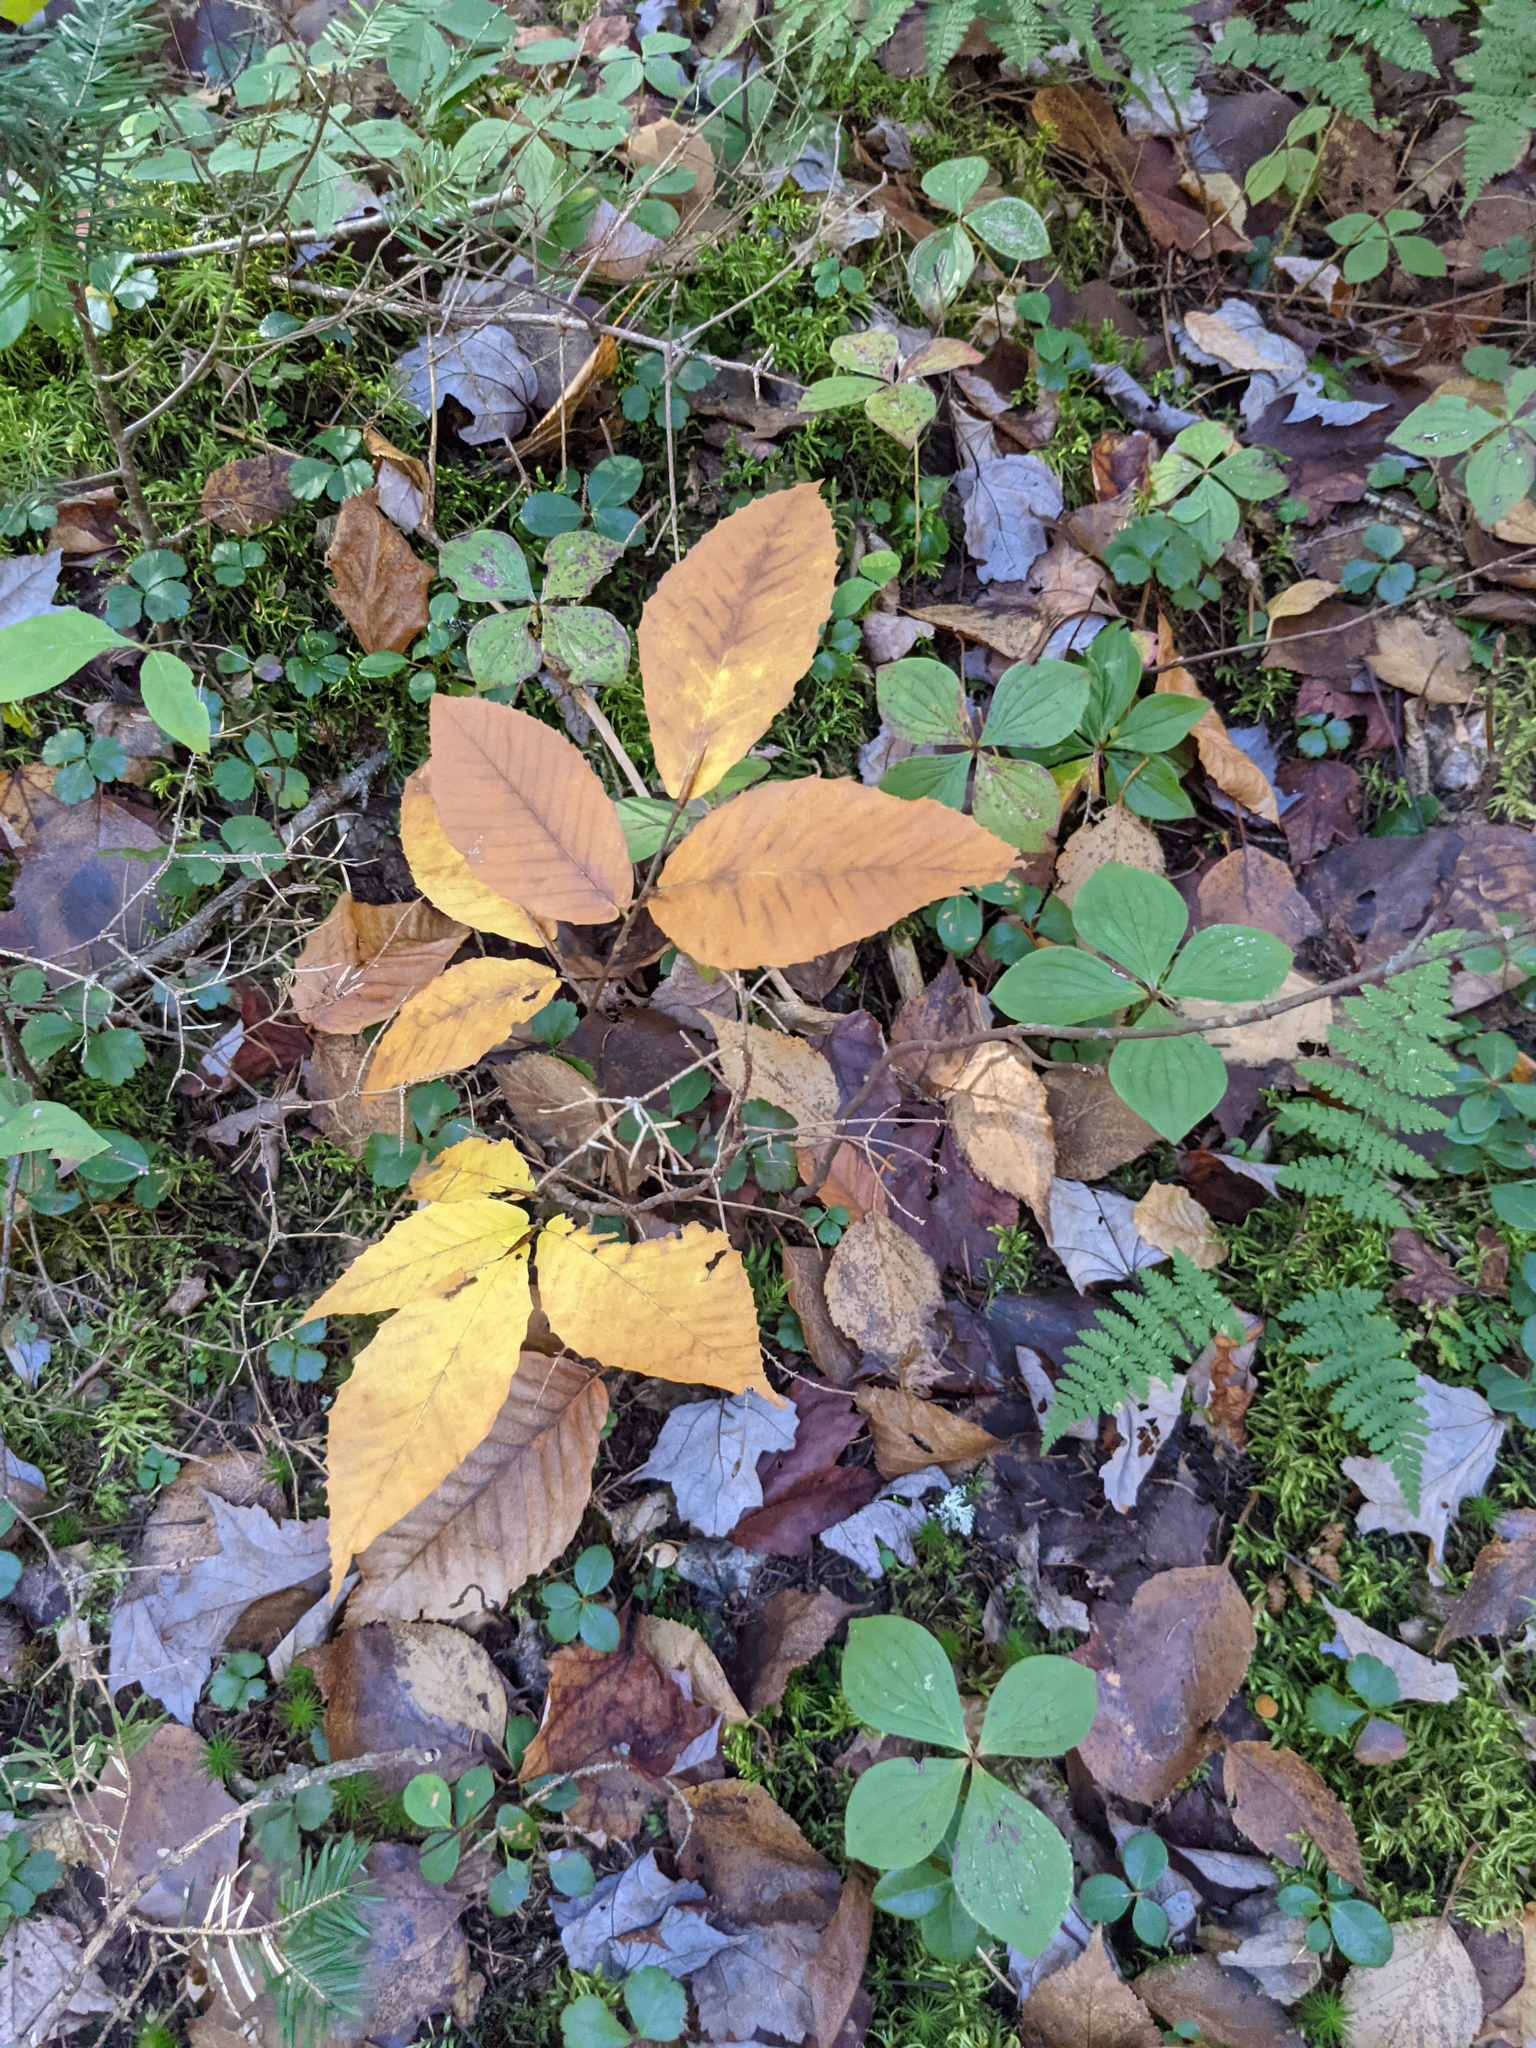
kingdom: Plantae
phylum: Tracheophyta
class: Magnoliopsida
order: Fagales
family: Fagaceae
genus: Fagus
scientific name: Fagus grandifolia
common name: American beech
